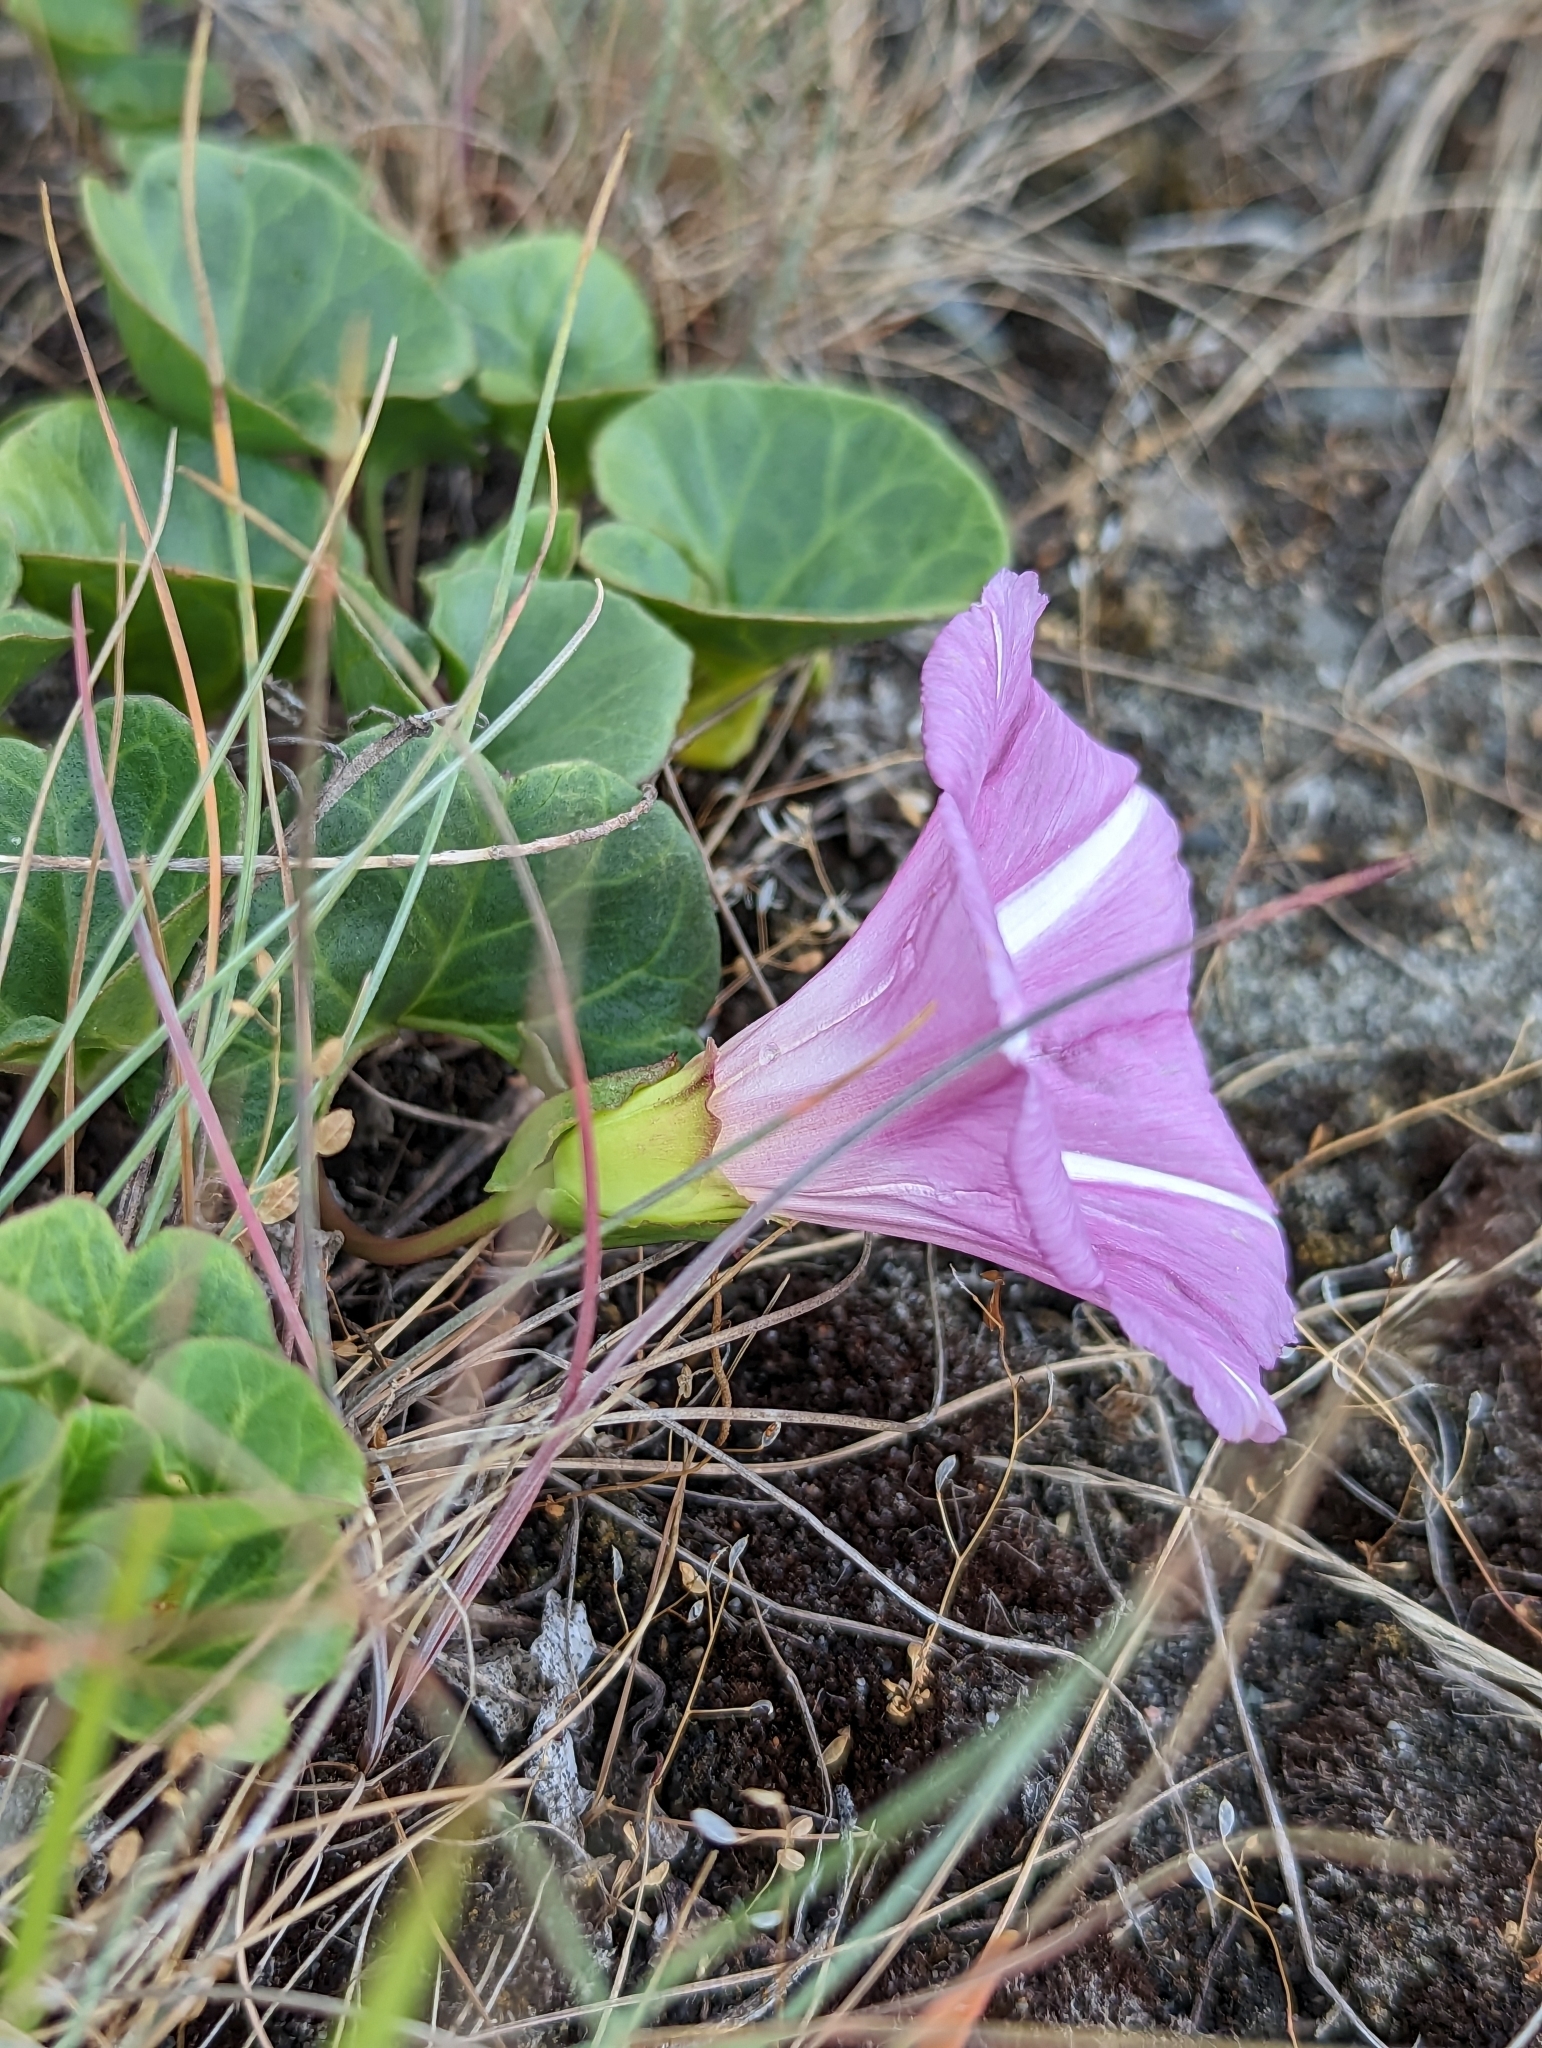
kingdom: Plantae
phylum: Tracheophyta
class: Magnoliopsida
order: Solanales
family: Convolvulaceae
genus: Calystegia
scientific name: Calystegia soldanella
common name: Sea bindweed
